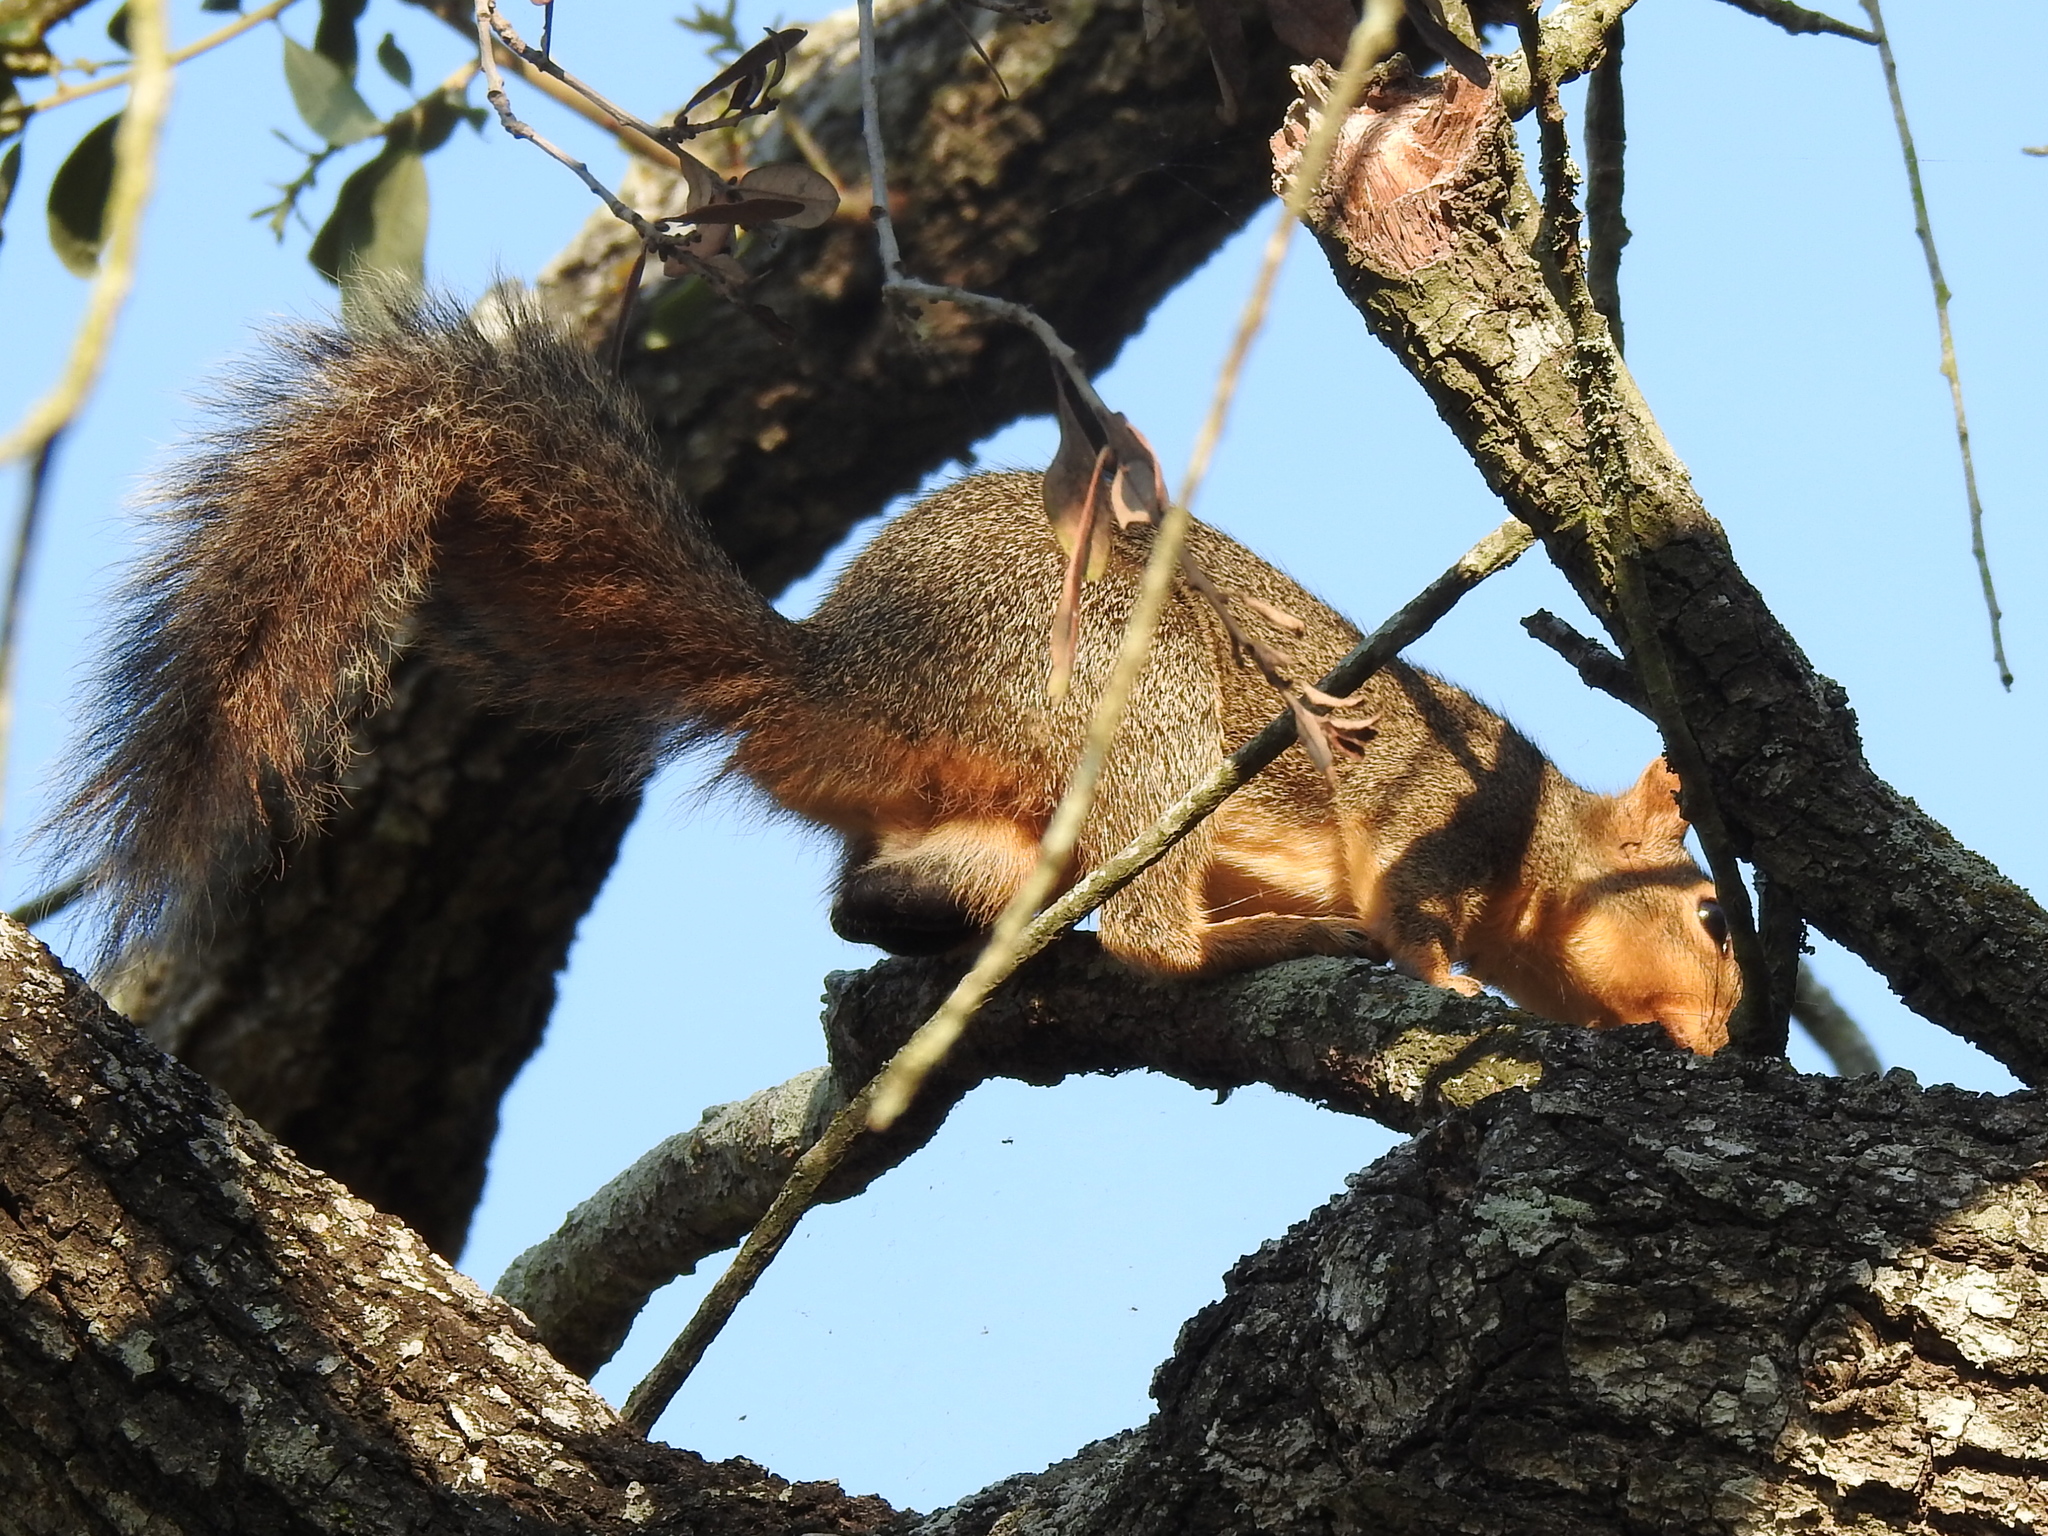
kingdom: Animalia
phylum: Chordata
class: Mammalia
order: Rodentia
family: Sciuridae
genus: Sciurus
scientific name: Sciurus niger
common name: Fox squirrel
